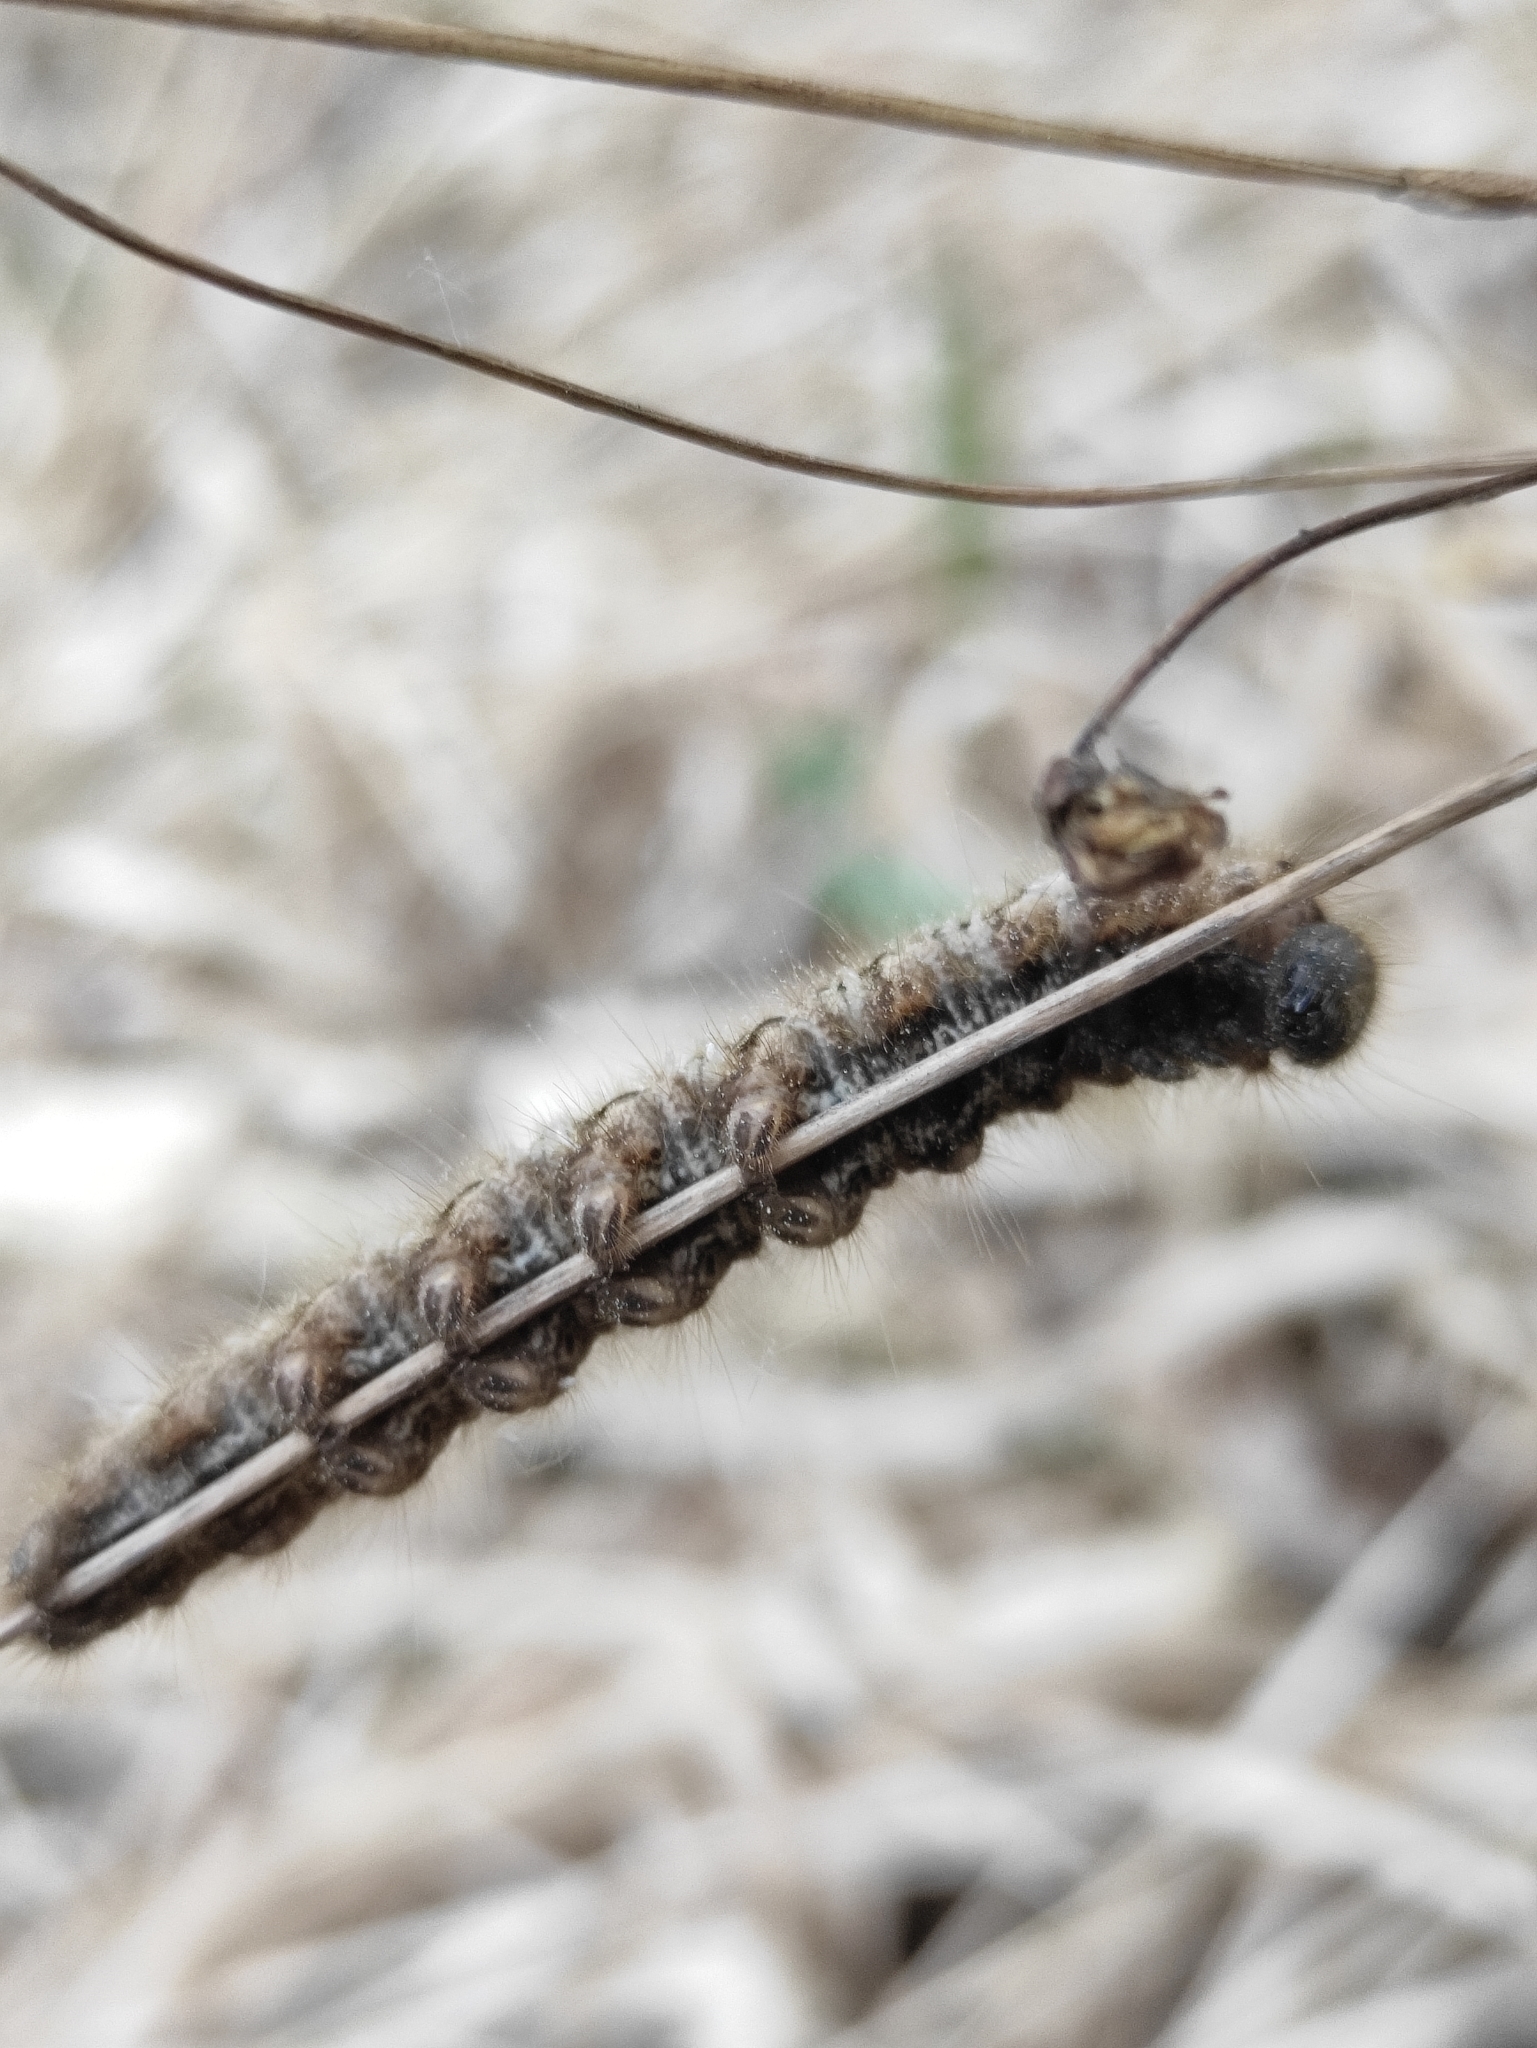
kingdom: Animalia
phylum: Arthropoda
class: Insecta
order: Lepidoptera
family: Lasiocampidae
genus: Euthrix
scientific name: Euthrix potatoria
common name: Drinker
